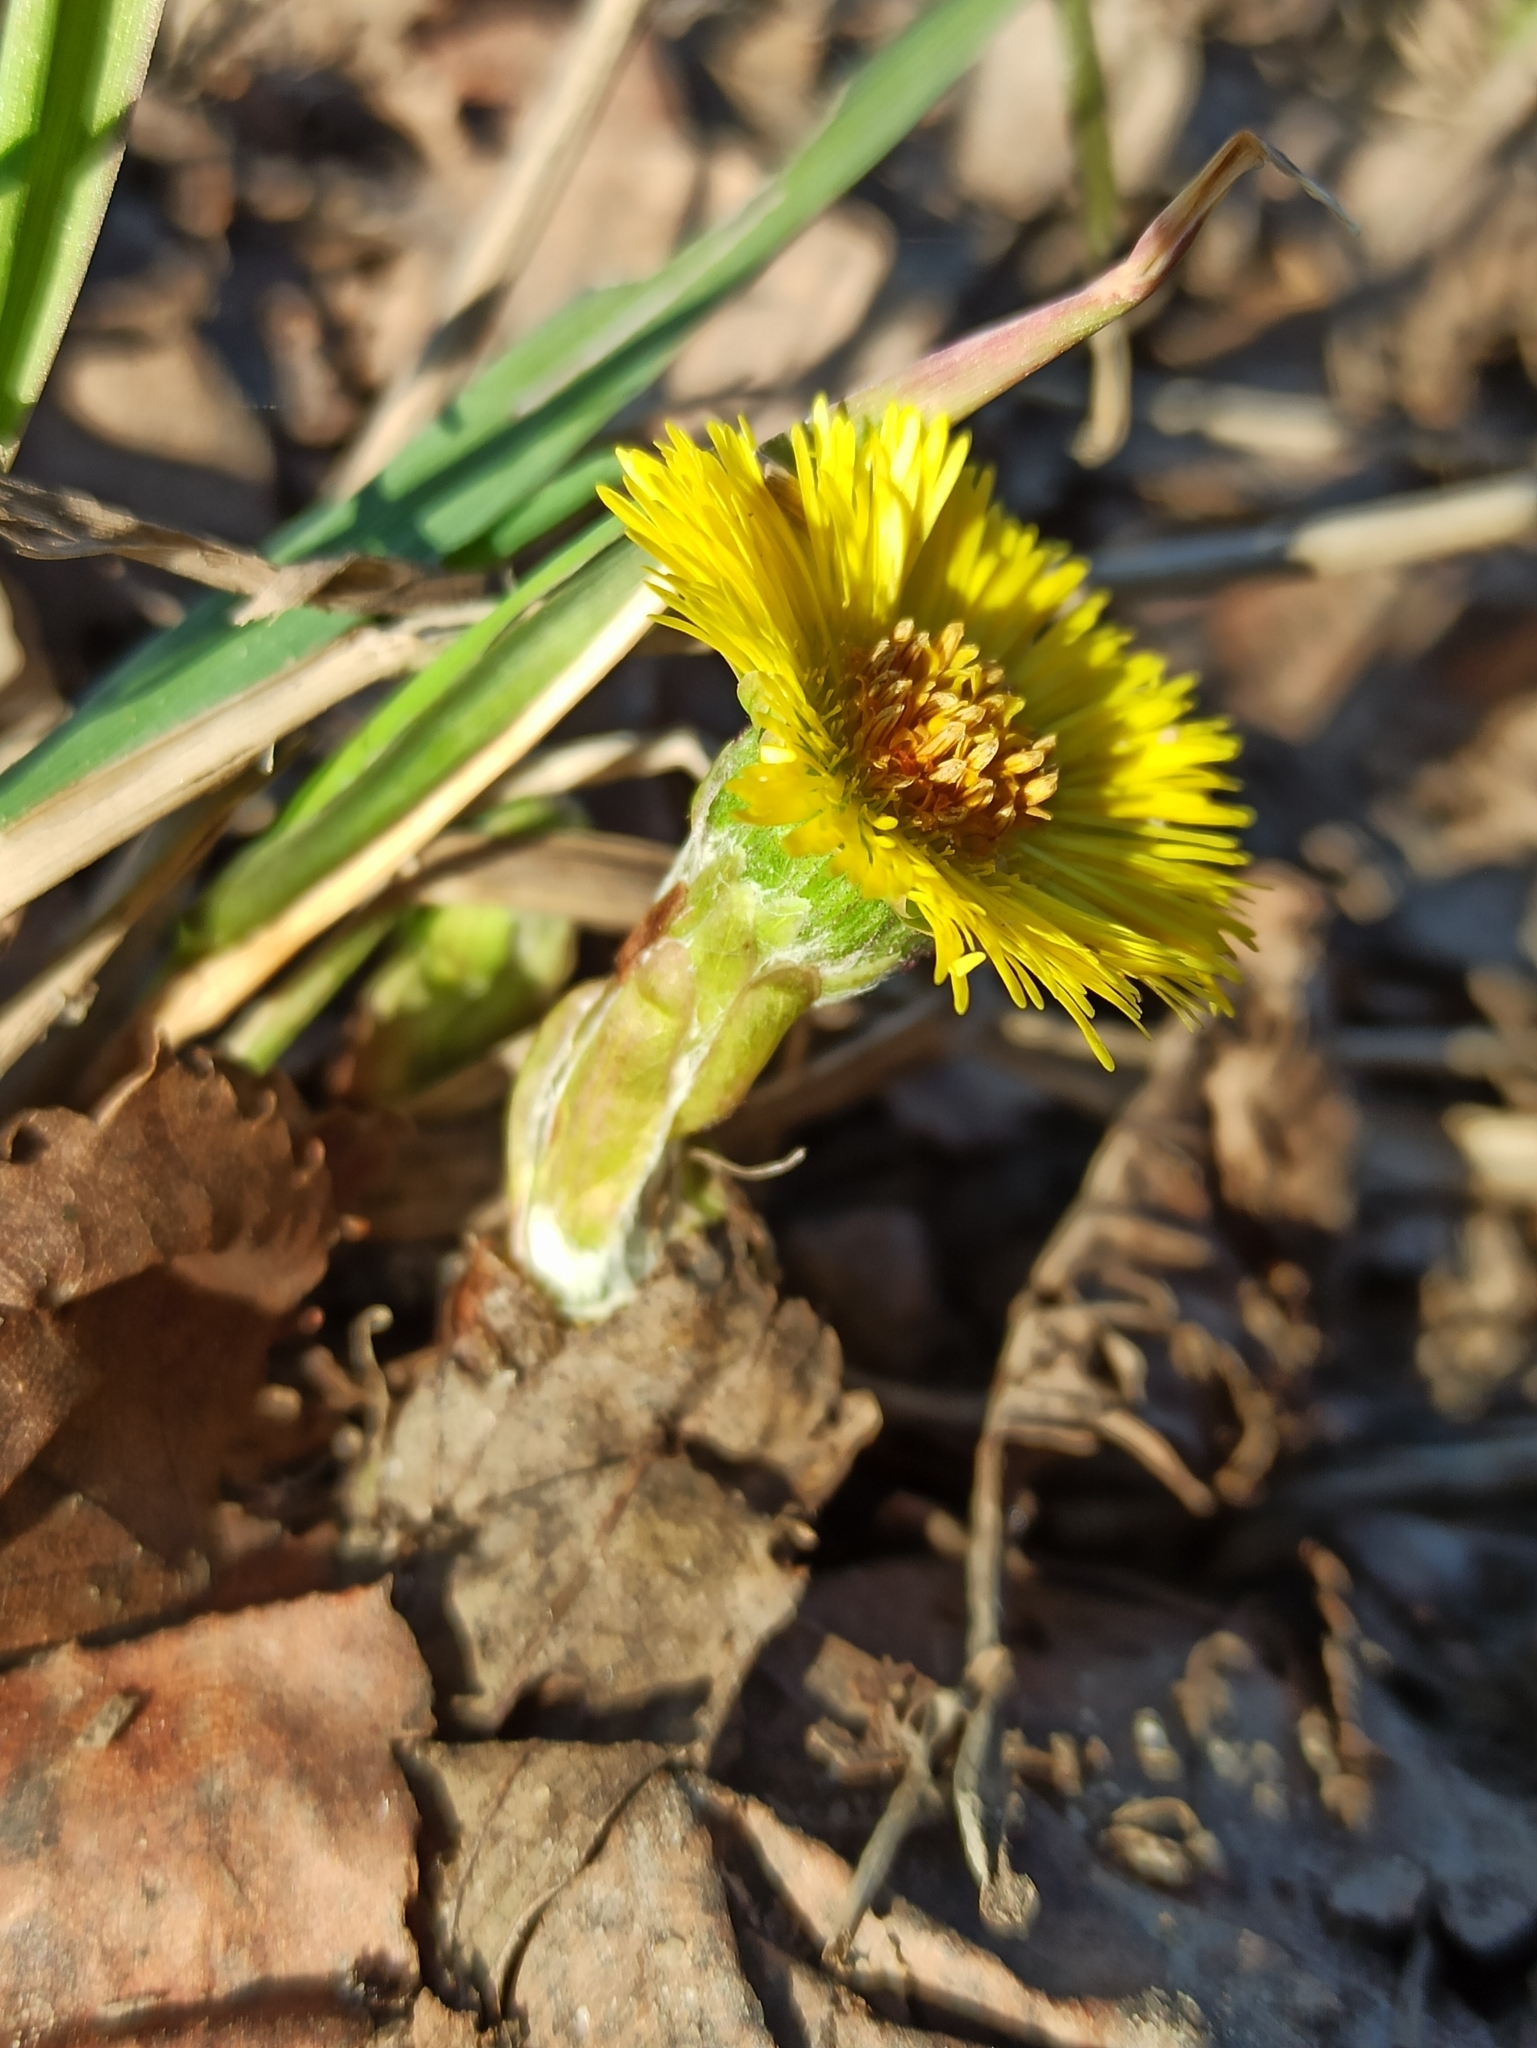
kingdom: Plantae
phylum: Tracheophyta
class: Magnoliopsida
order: Asterales
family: Asteraceae
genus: Tussilago
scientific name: Tussilago farfara
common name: Coltsfoot
